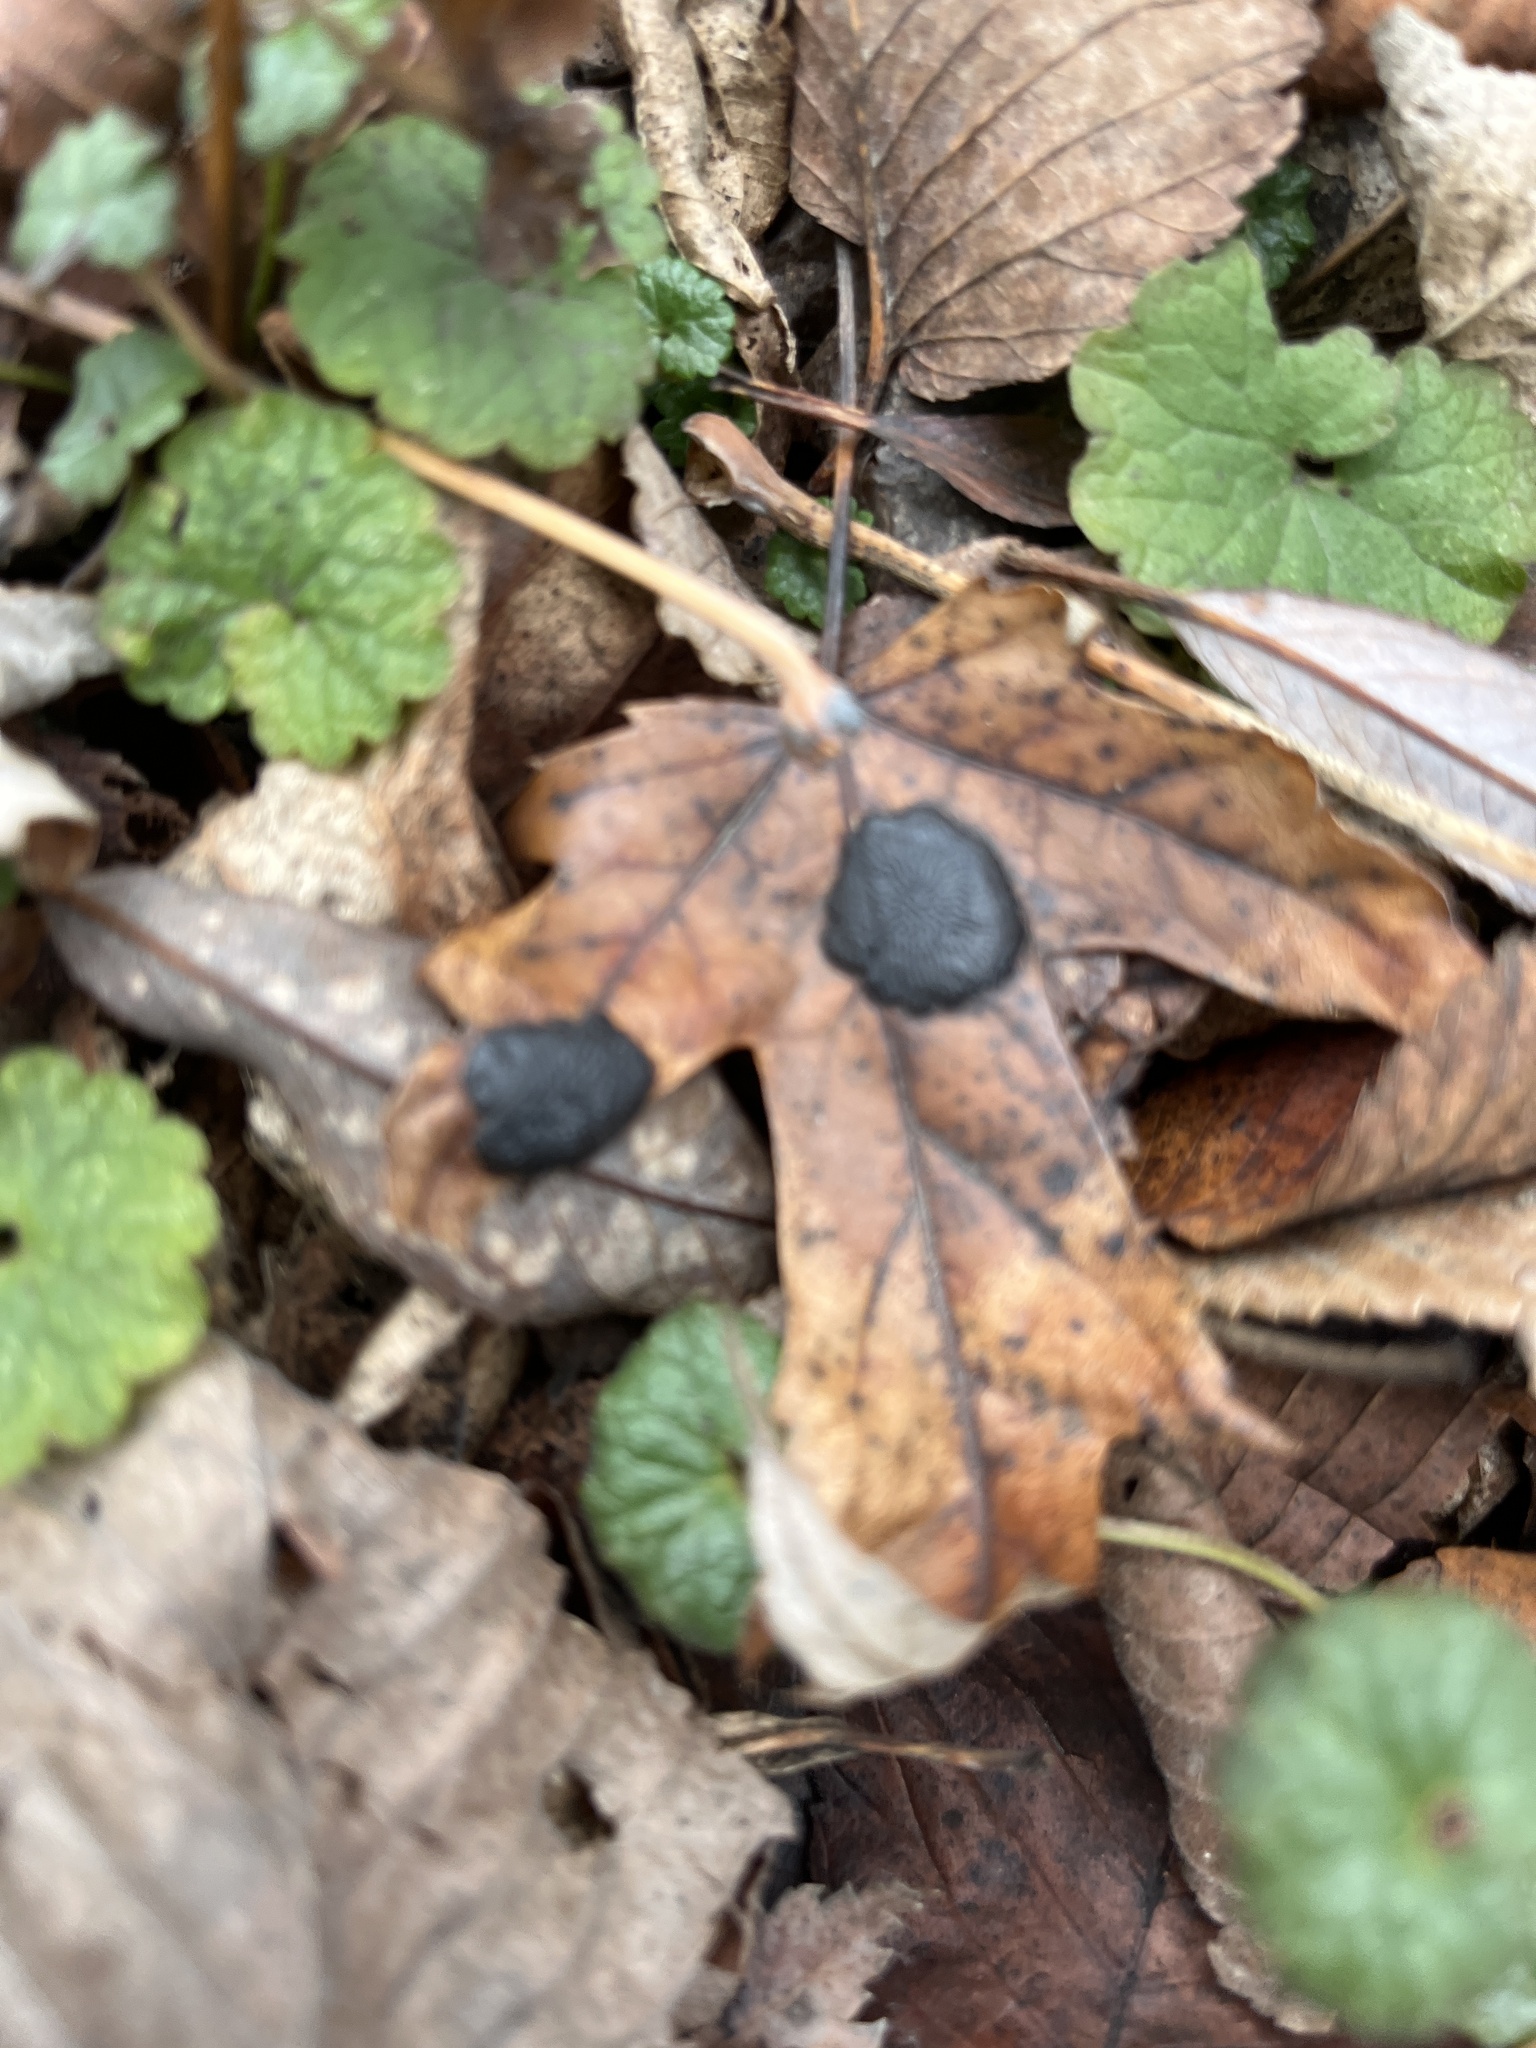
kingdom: Fungi
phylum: Ascomycota
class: Leotiomycetes
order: Rhytismatales
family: Rhytismataceae
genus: Rhytisma
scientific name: Rhytisma acerinum
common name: European tar spot
